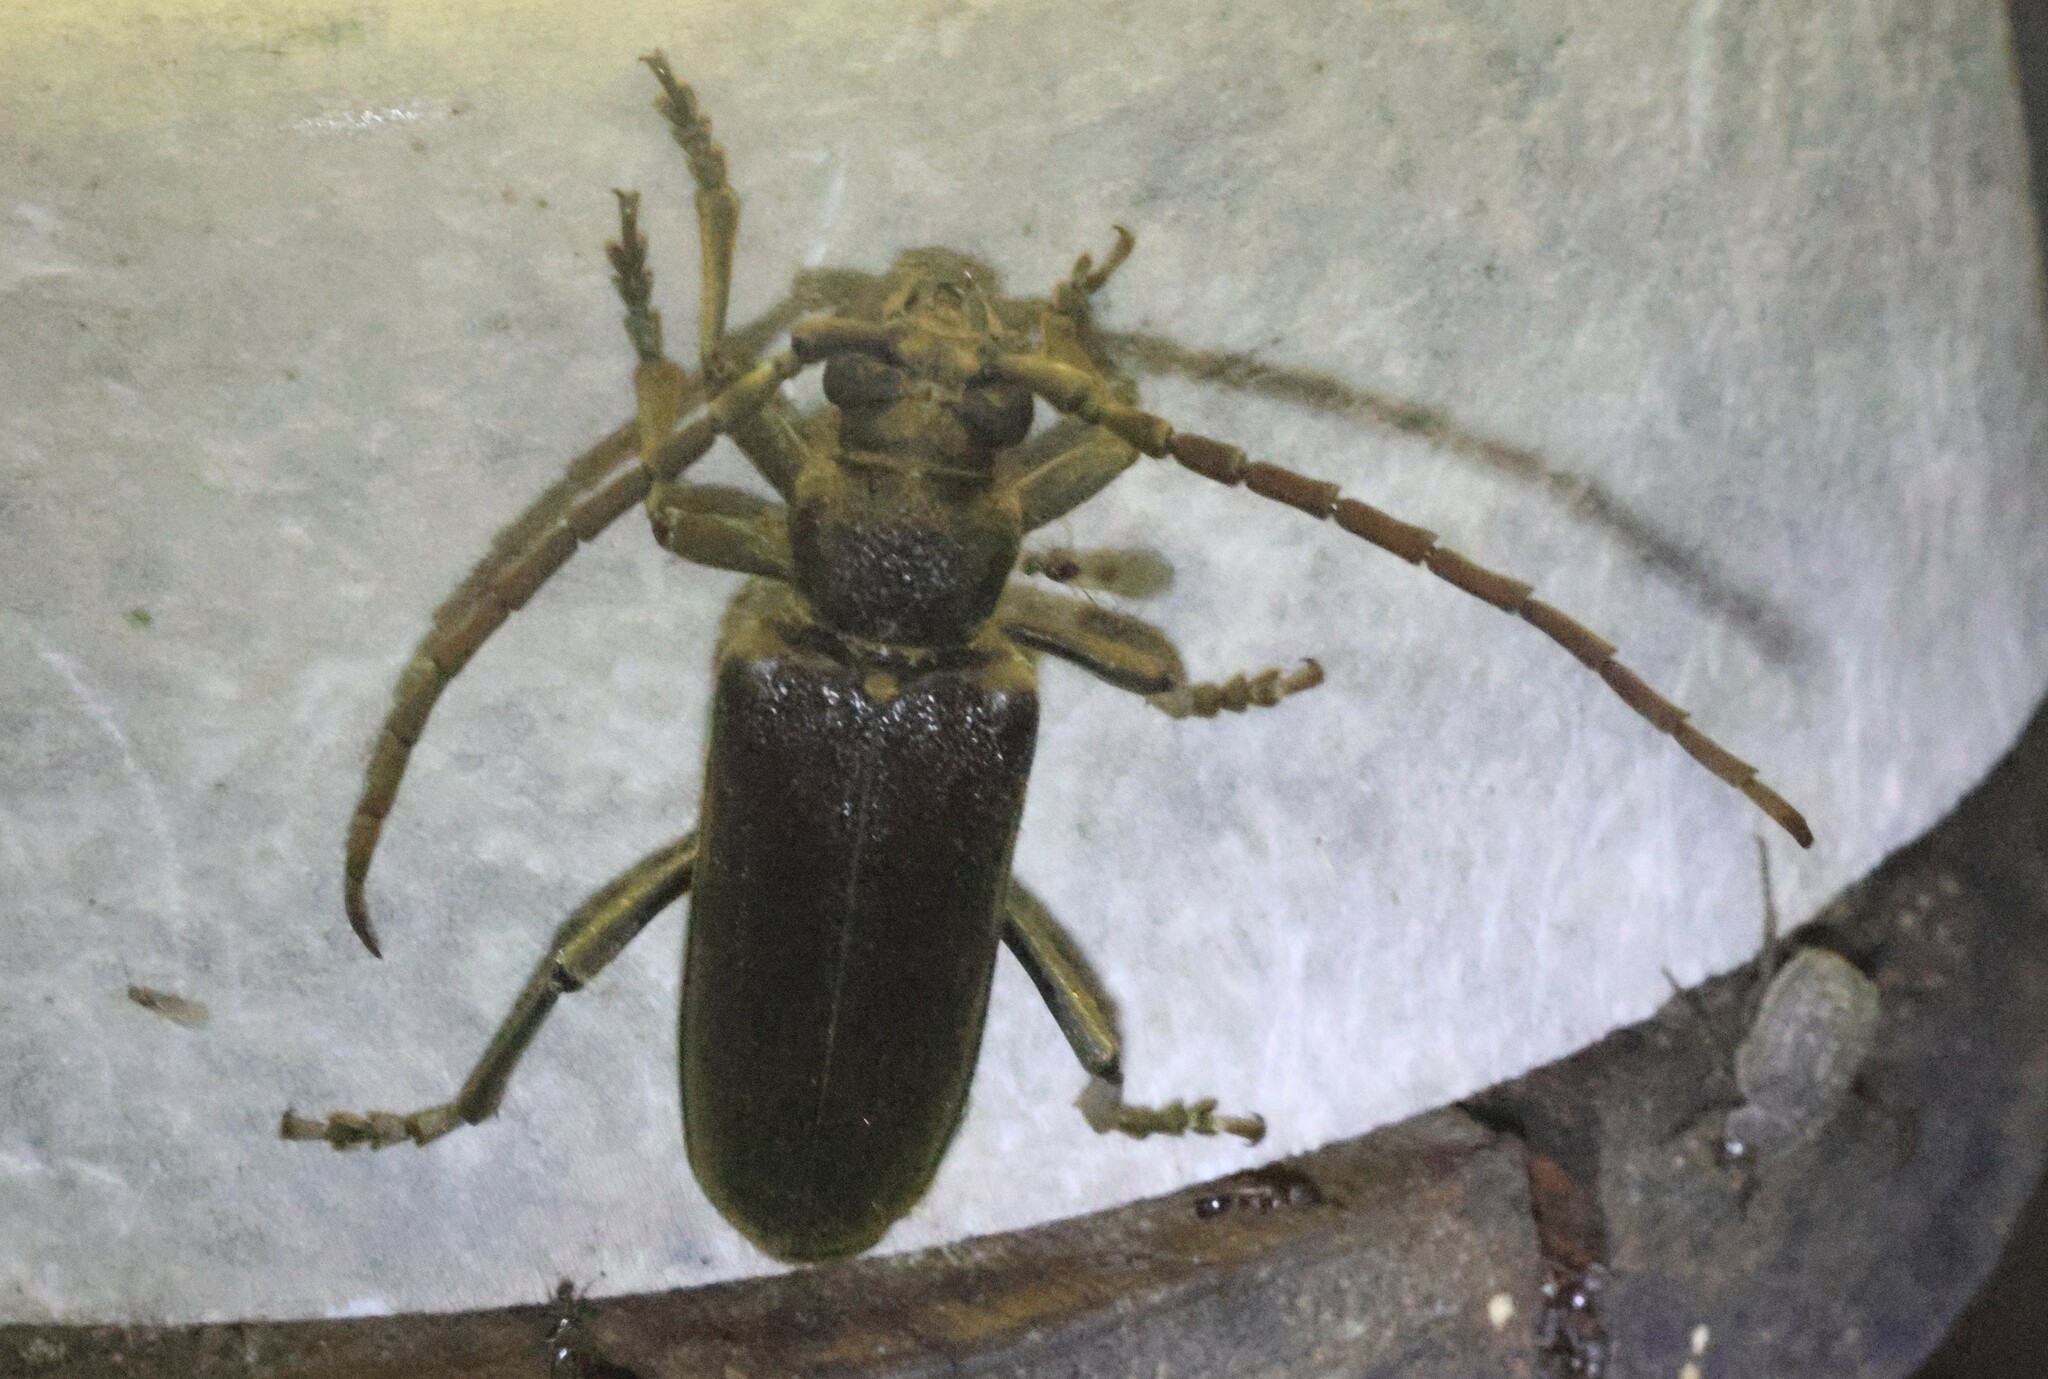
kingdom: Animalia
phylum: Arthropoda
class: Insecta
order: Coleoptera
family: Cerambycidae
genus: Africophanes
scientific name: Africophanes amicus
